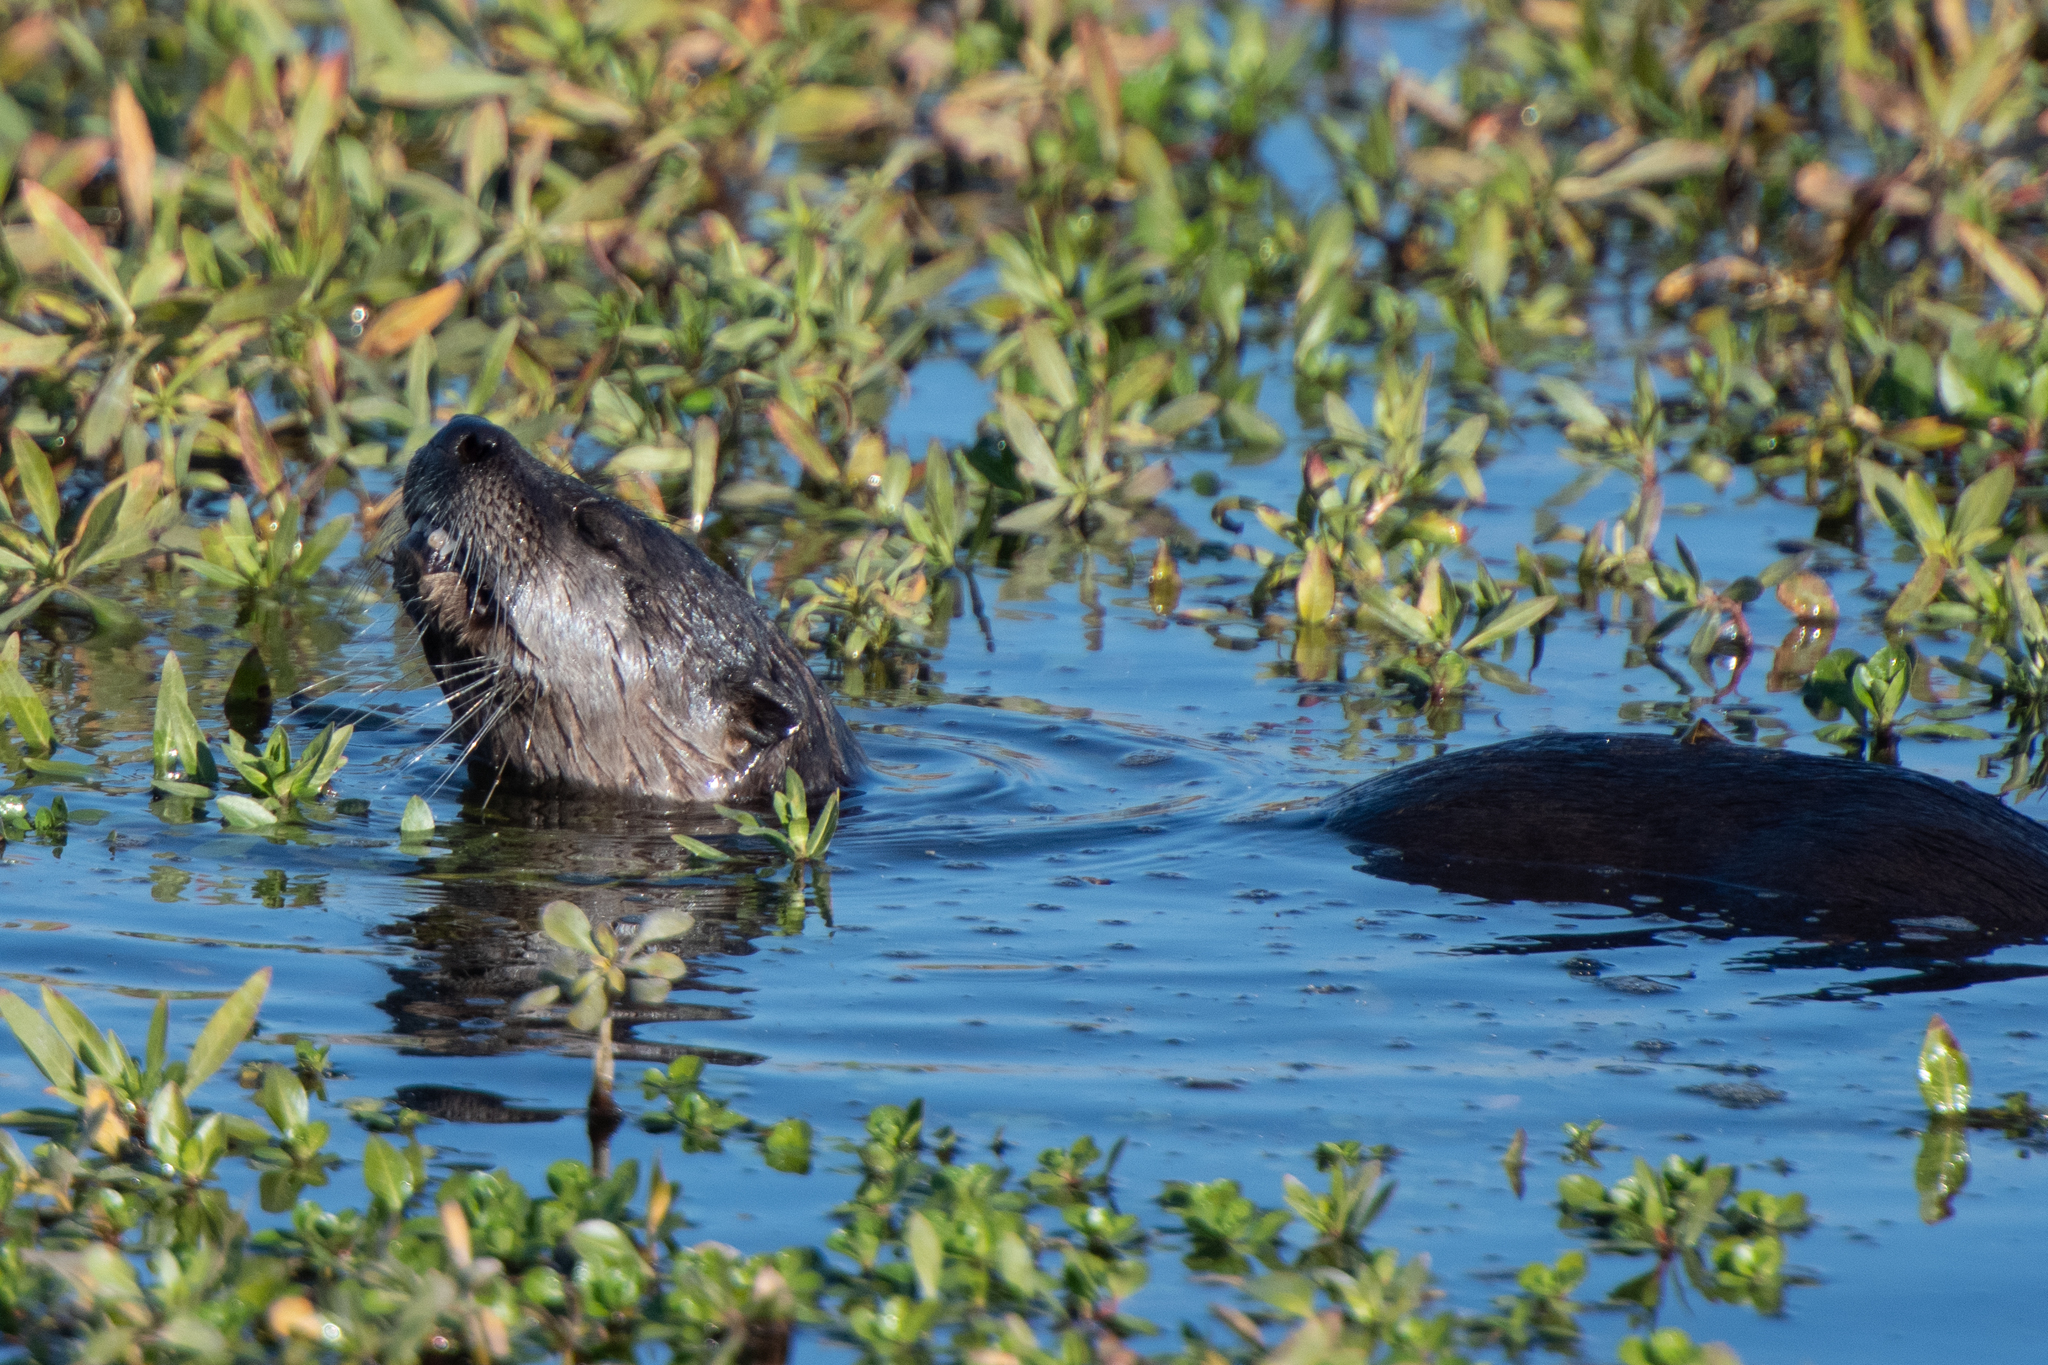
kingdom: Animalia
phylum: Chordata
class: Mammalia
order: Carnivora
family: Mustelidae
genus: Lontra
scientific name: Lontra canadensis
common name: North american river otter
